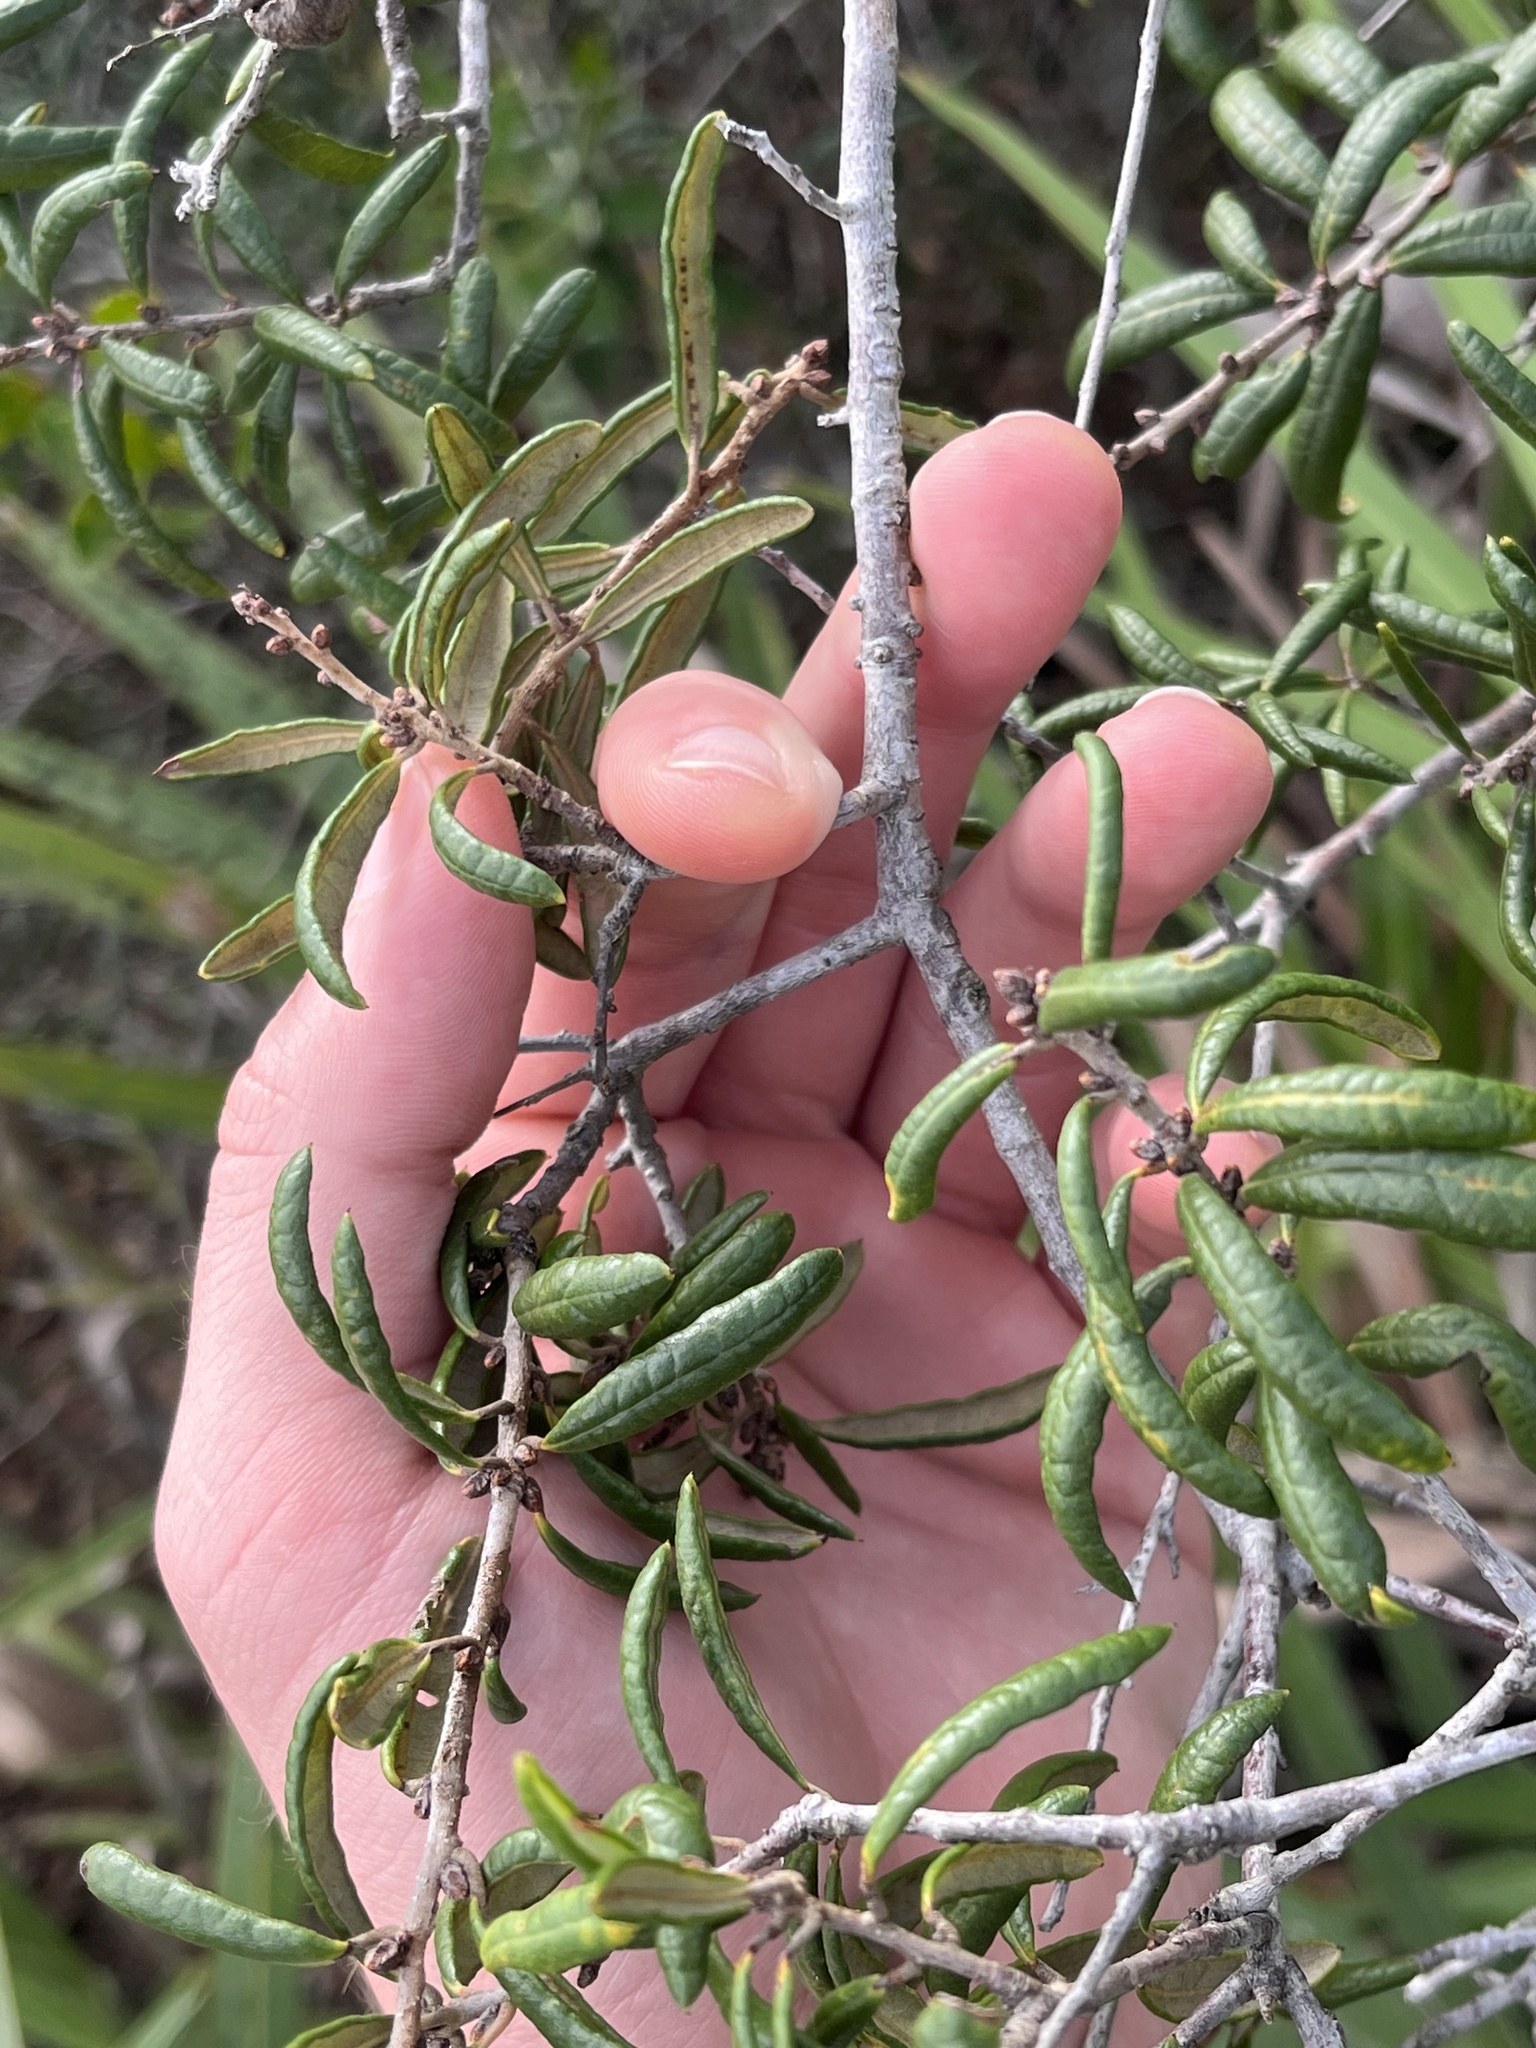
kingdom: Plantae
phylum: Tracheophyta
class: Magnoliopsida
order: Fagales
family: Fagaceae
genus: Quercus
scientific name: Quercus geminata
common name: Sand live oak
